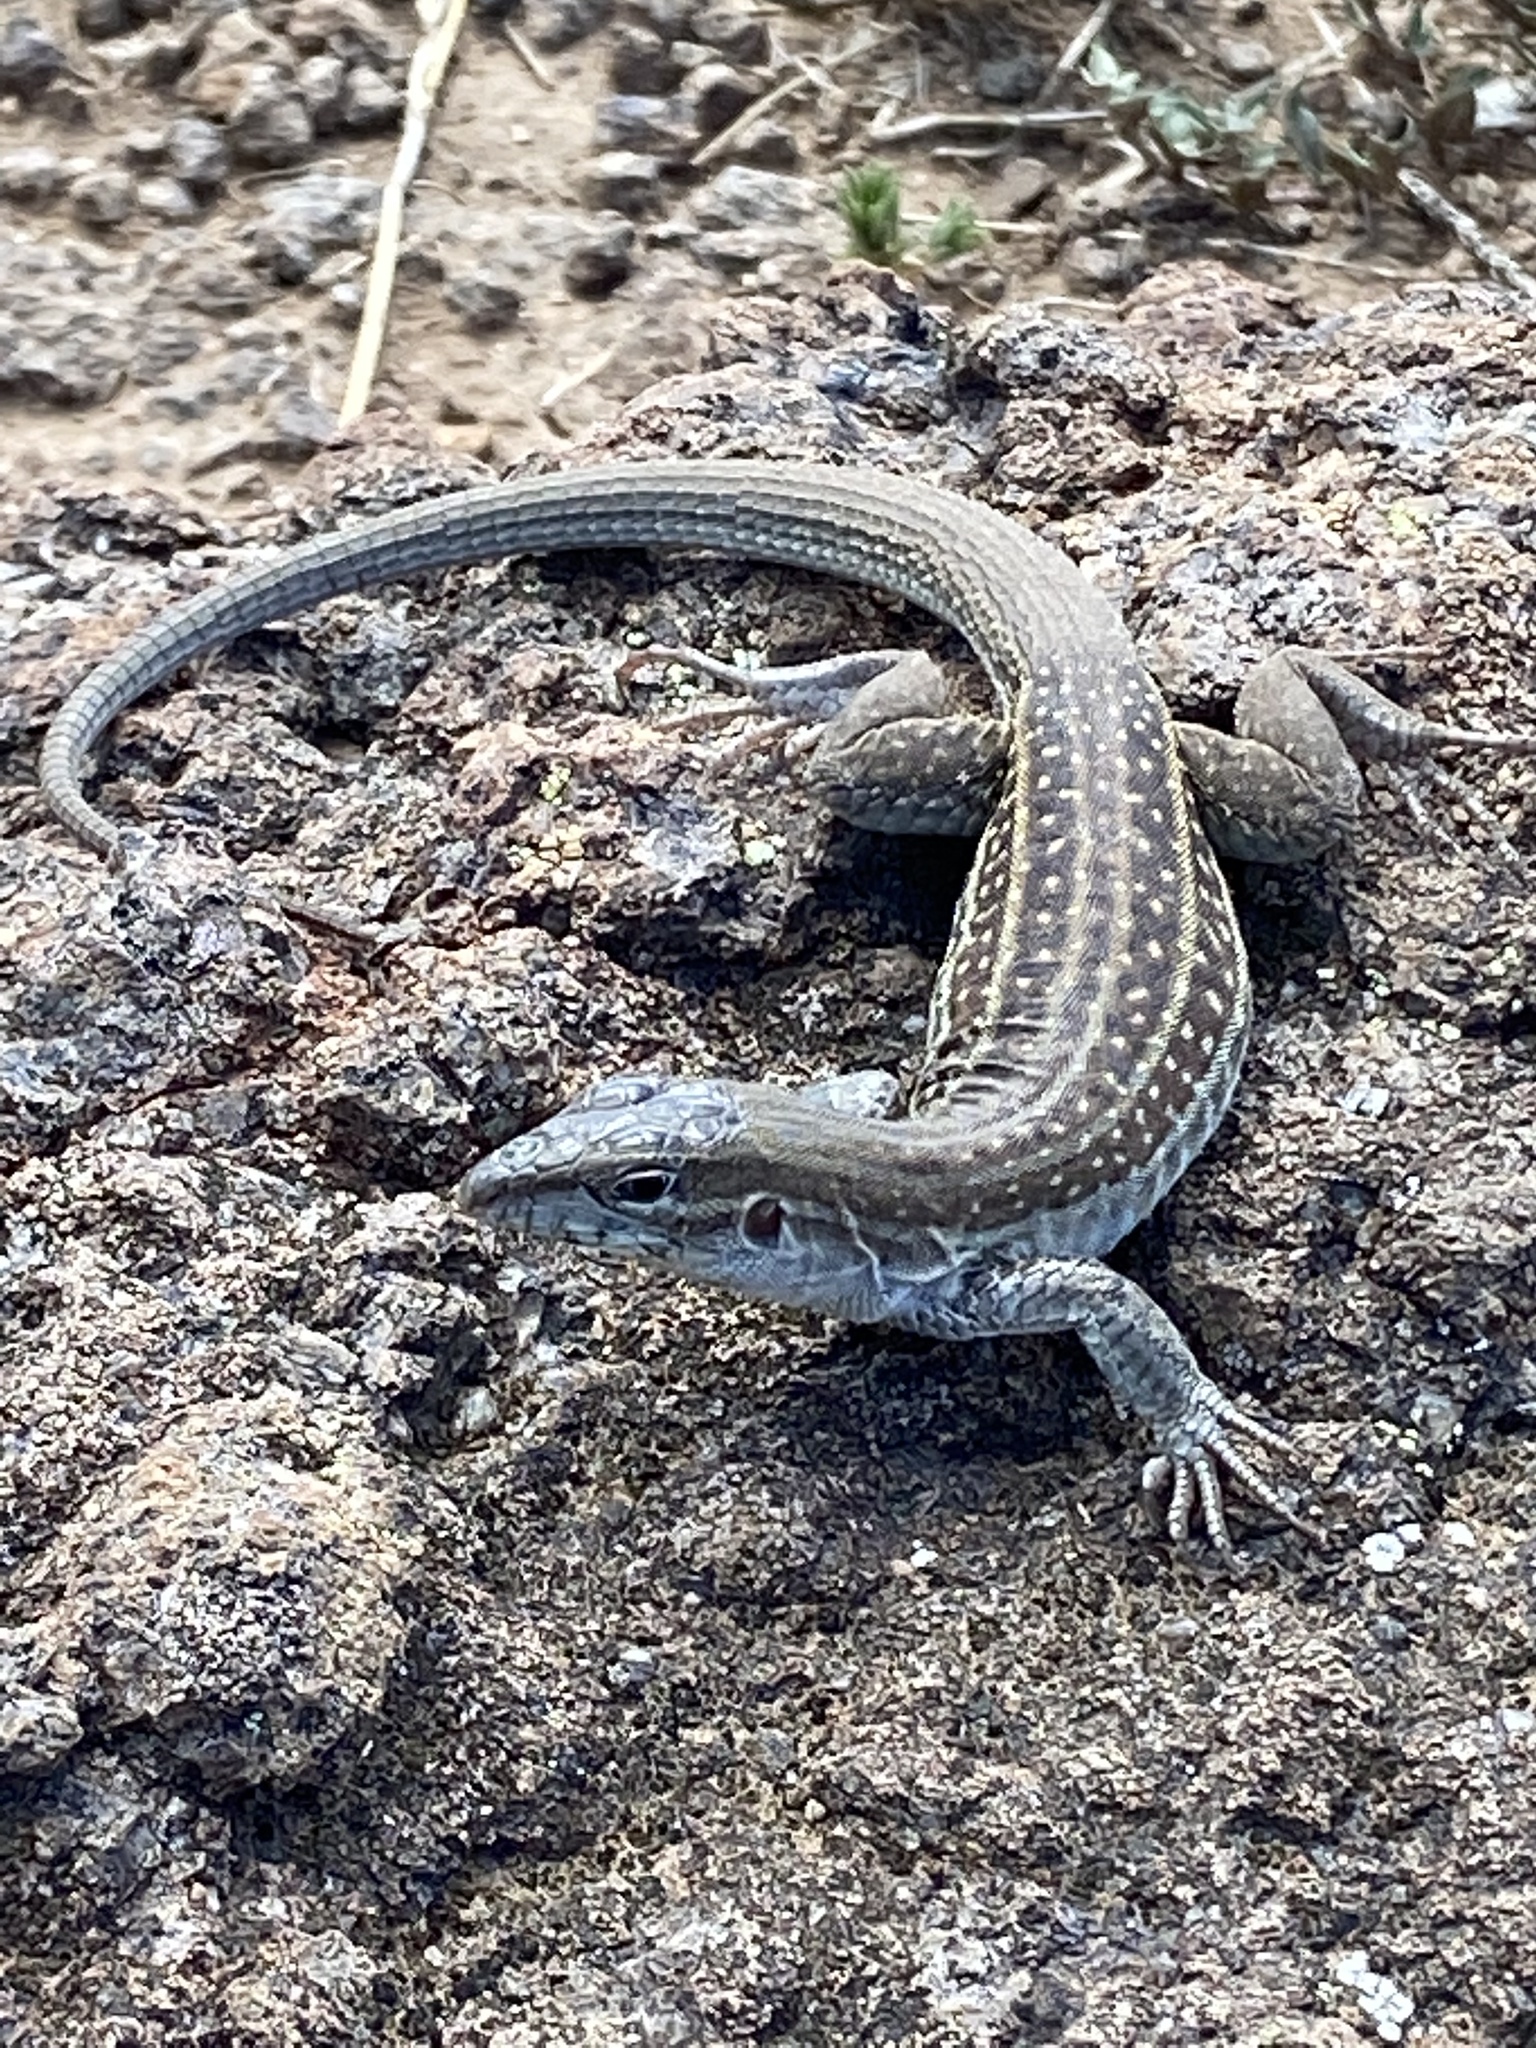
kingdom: Animalia
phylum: Chordata
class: Squamata
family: Teiidae
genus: Aspidoscelis
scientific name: Aspidoscelis exsanguis
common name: Chihuahuan spotted whiptail
